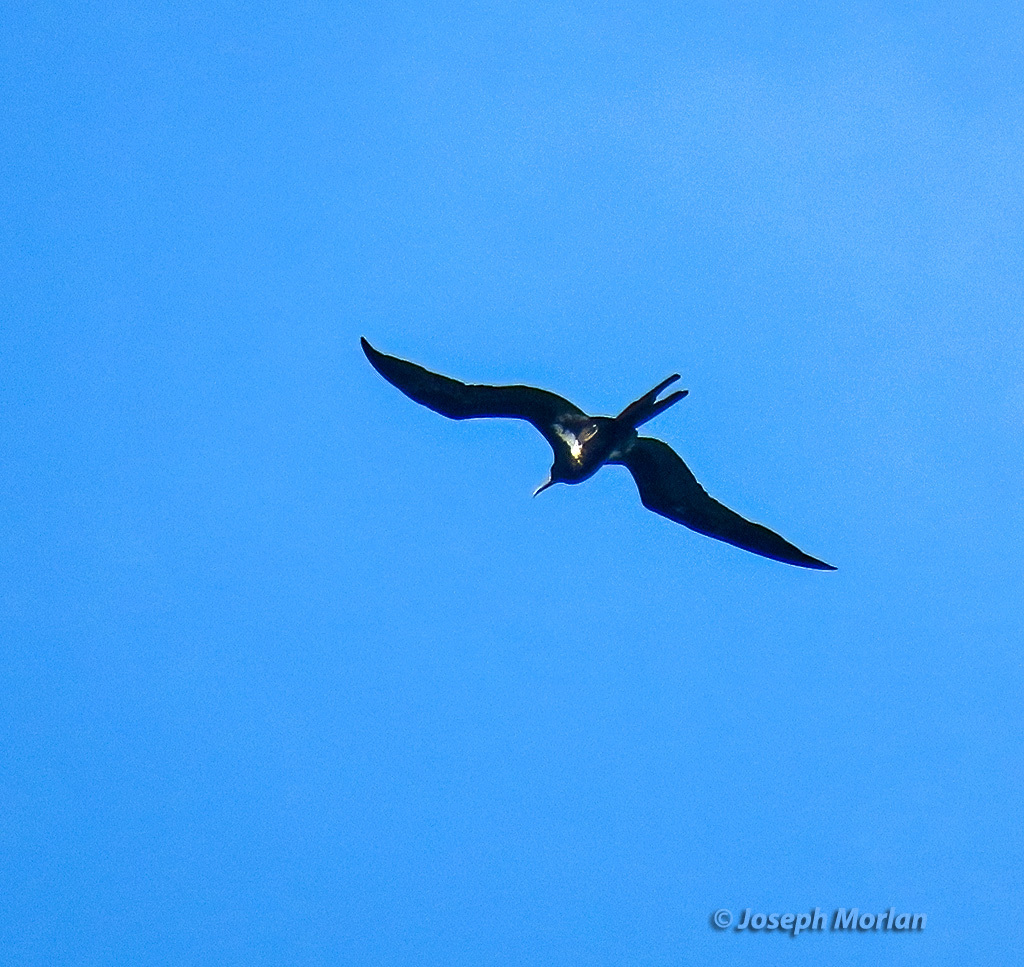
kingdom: Animalia
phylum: Chordata
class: Aves
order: Suliformes
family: Fregatidae
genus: Fregata
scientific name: Fregata ariel
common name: Lesser frigatebird
